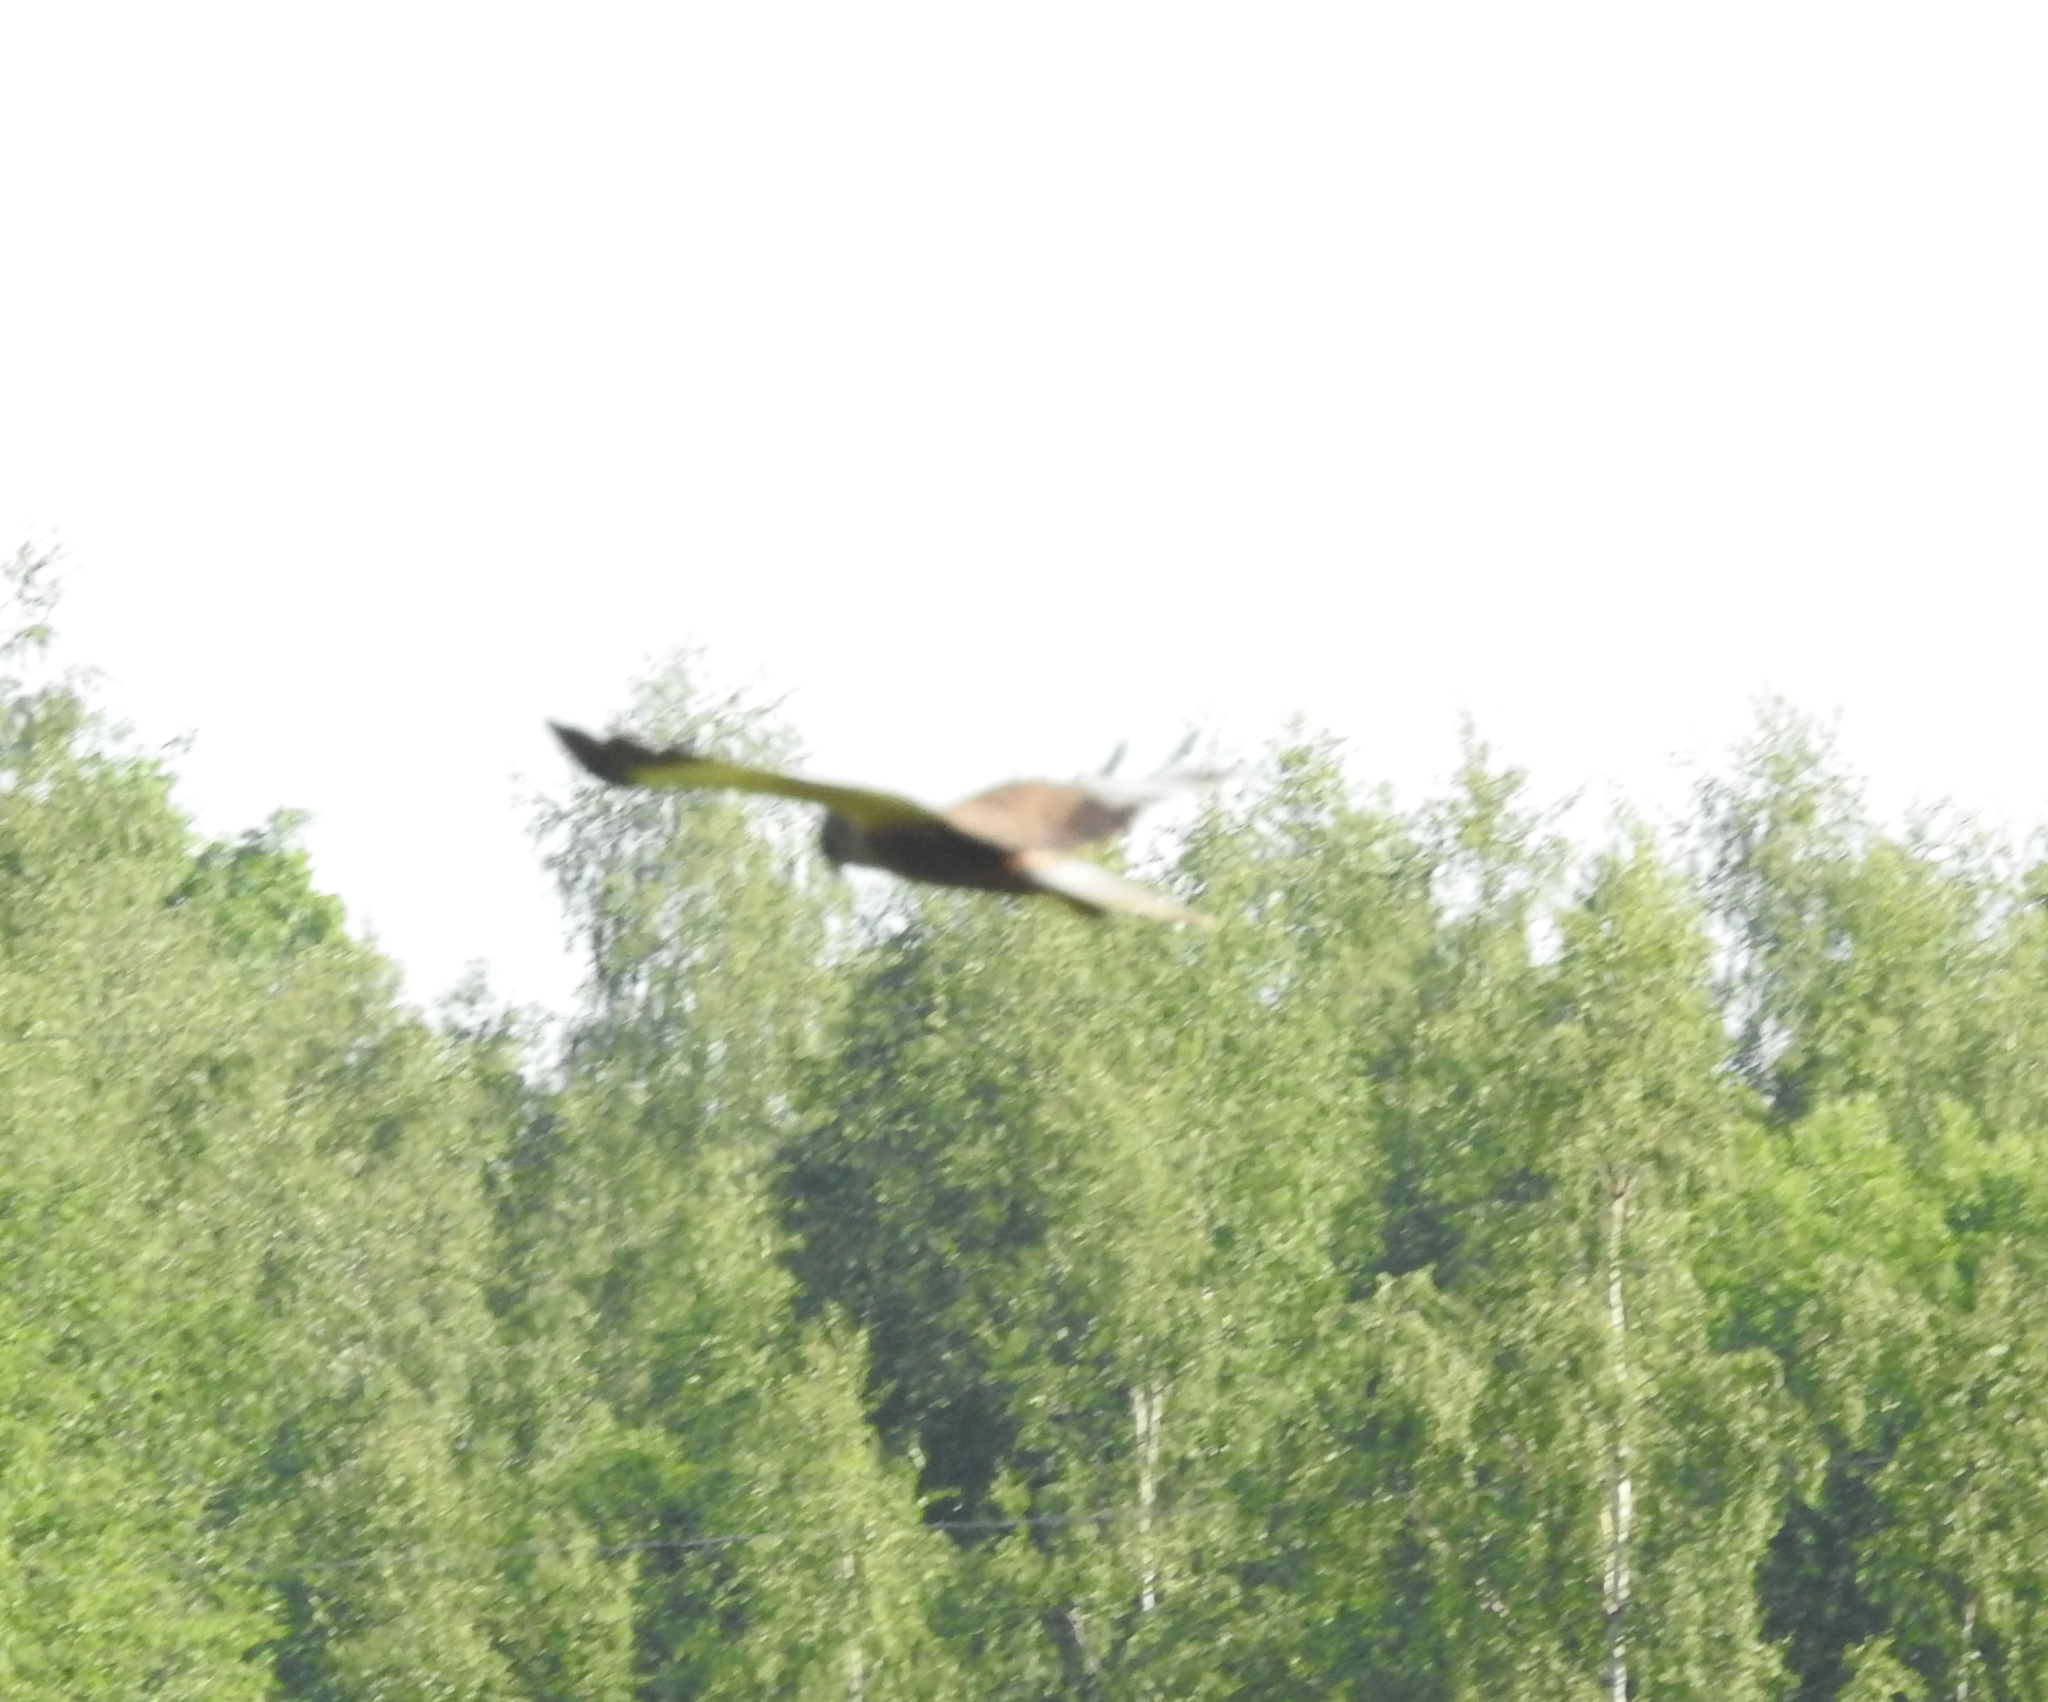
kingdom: Animalia
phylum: Chordata
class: Aves
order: Accipitriformes
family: Accipitridae
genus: Circus
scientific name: Circus aeruginosus
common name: Western marsh harrier
